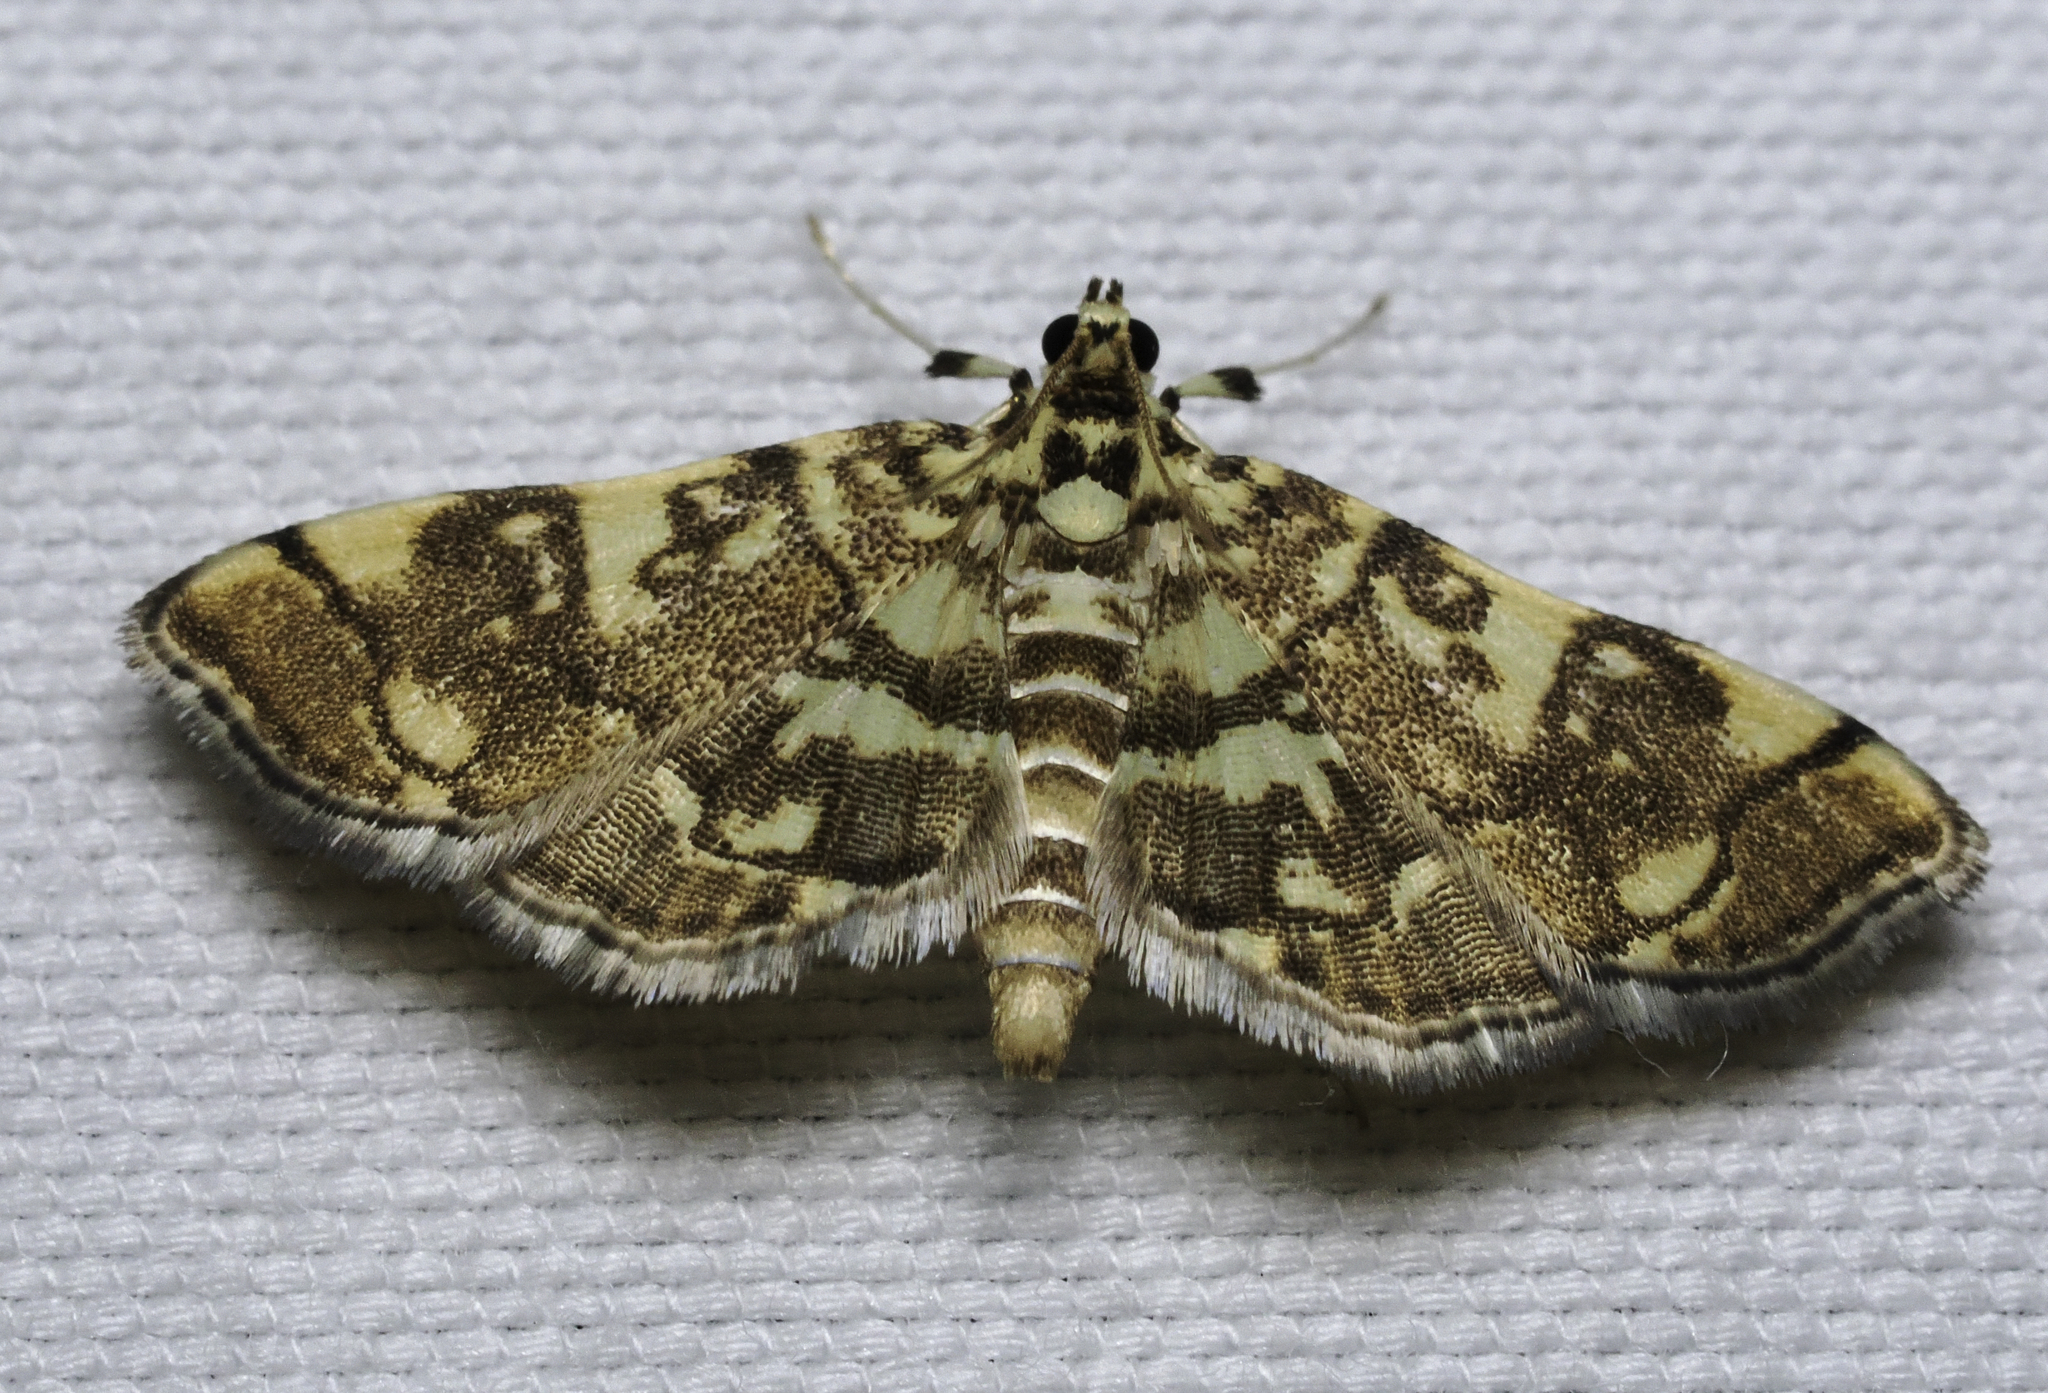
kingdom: Animalia
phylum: Arthropoda
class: Insecta
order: Lepidoptera
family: Crambidae
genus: Apogeshna
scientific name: Apogeshna stenialis
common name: Checkered apogeshna moth
